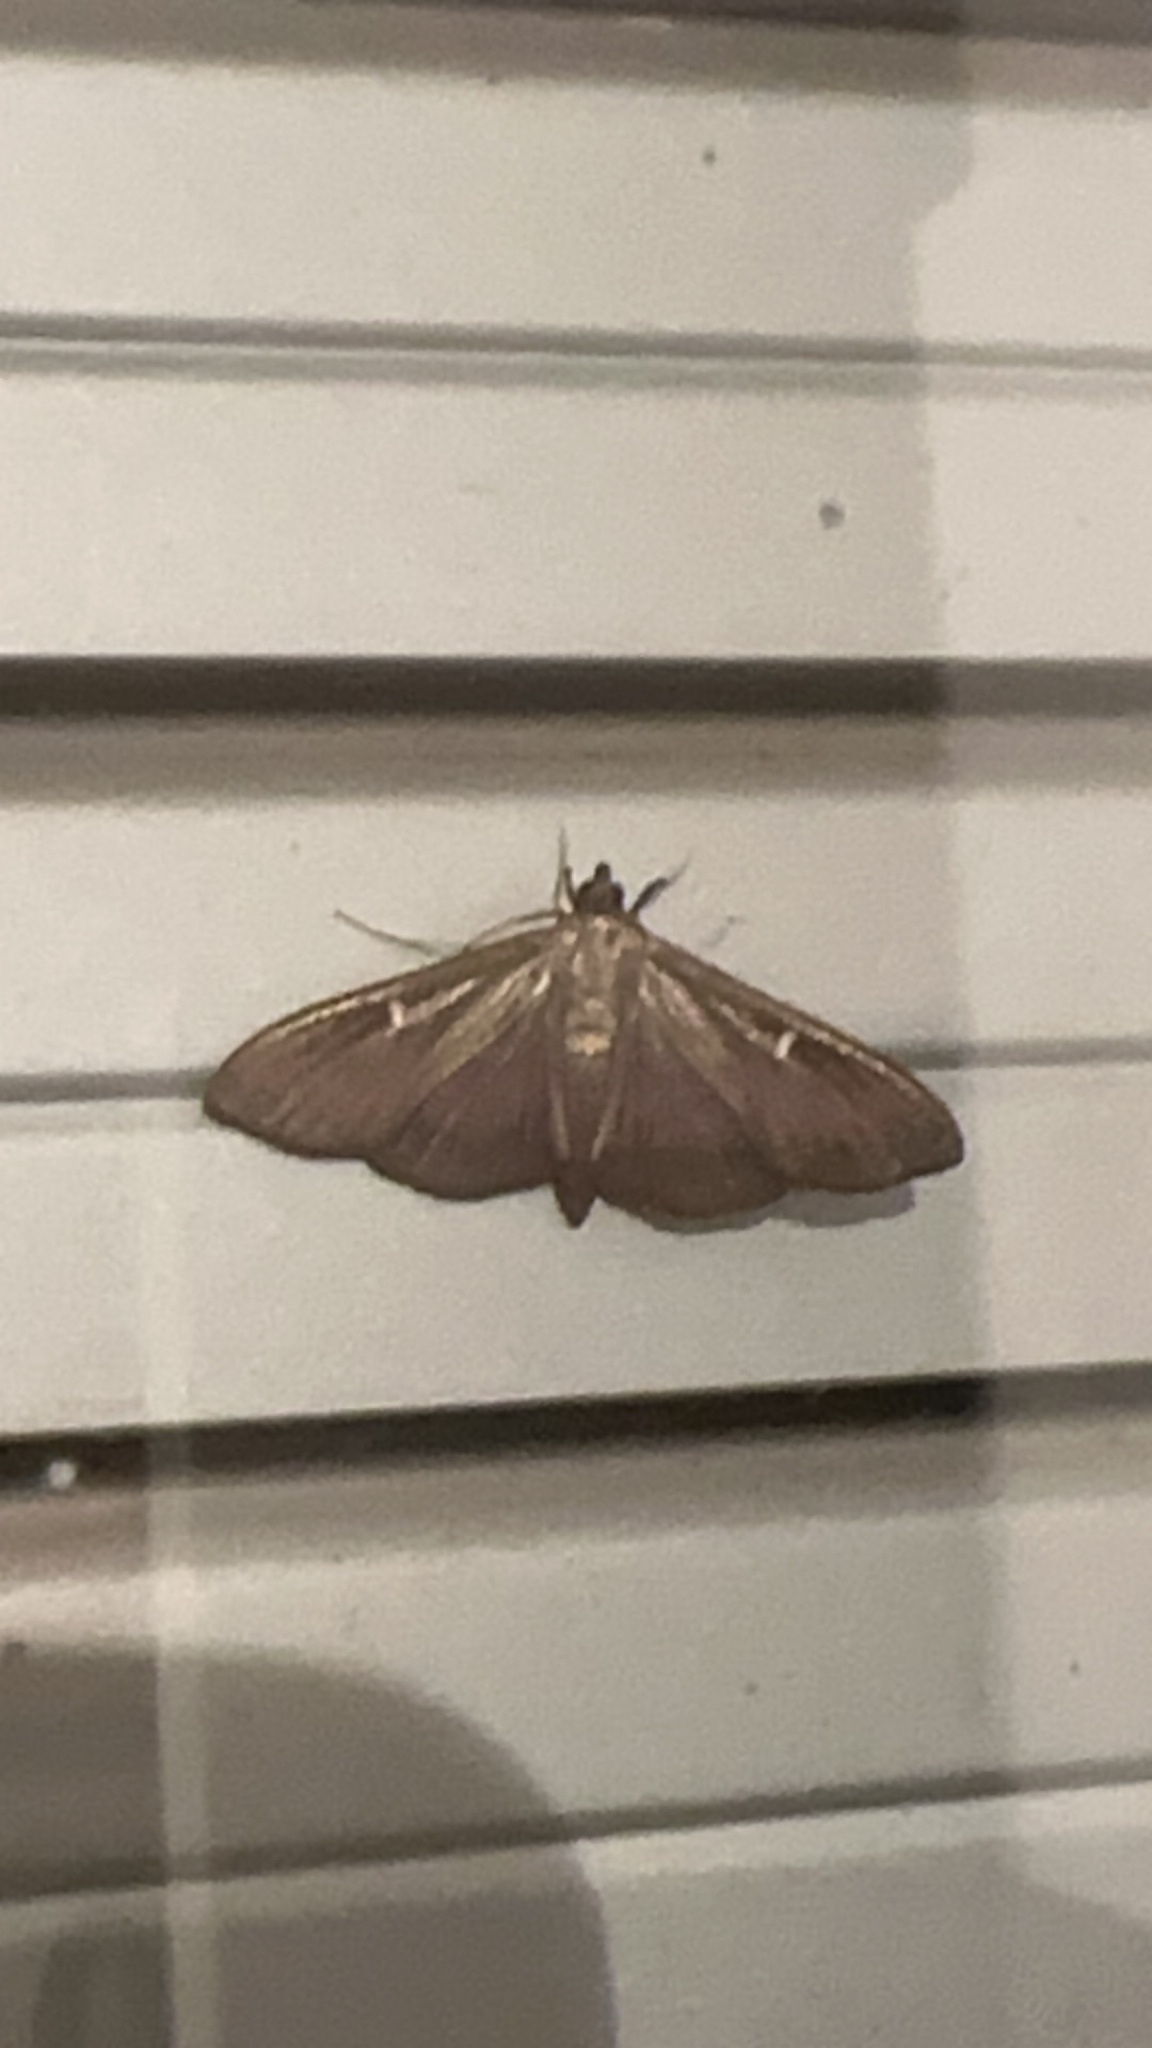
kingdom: Animalia
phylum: Arthropoda
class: Insecta
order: Lepidoptera
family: Crambidae
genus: Cydalima
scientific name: Cydalima perspectalis
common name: Box tree moth
